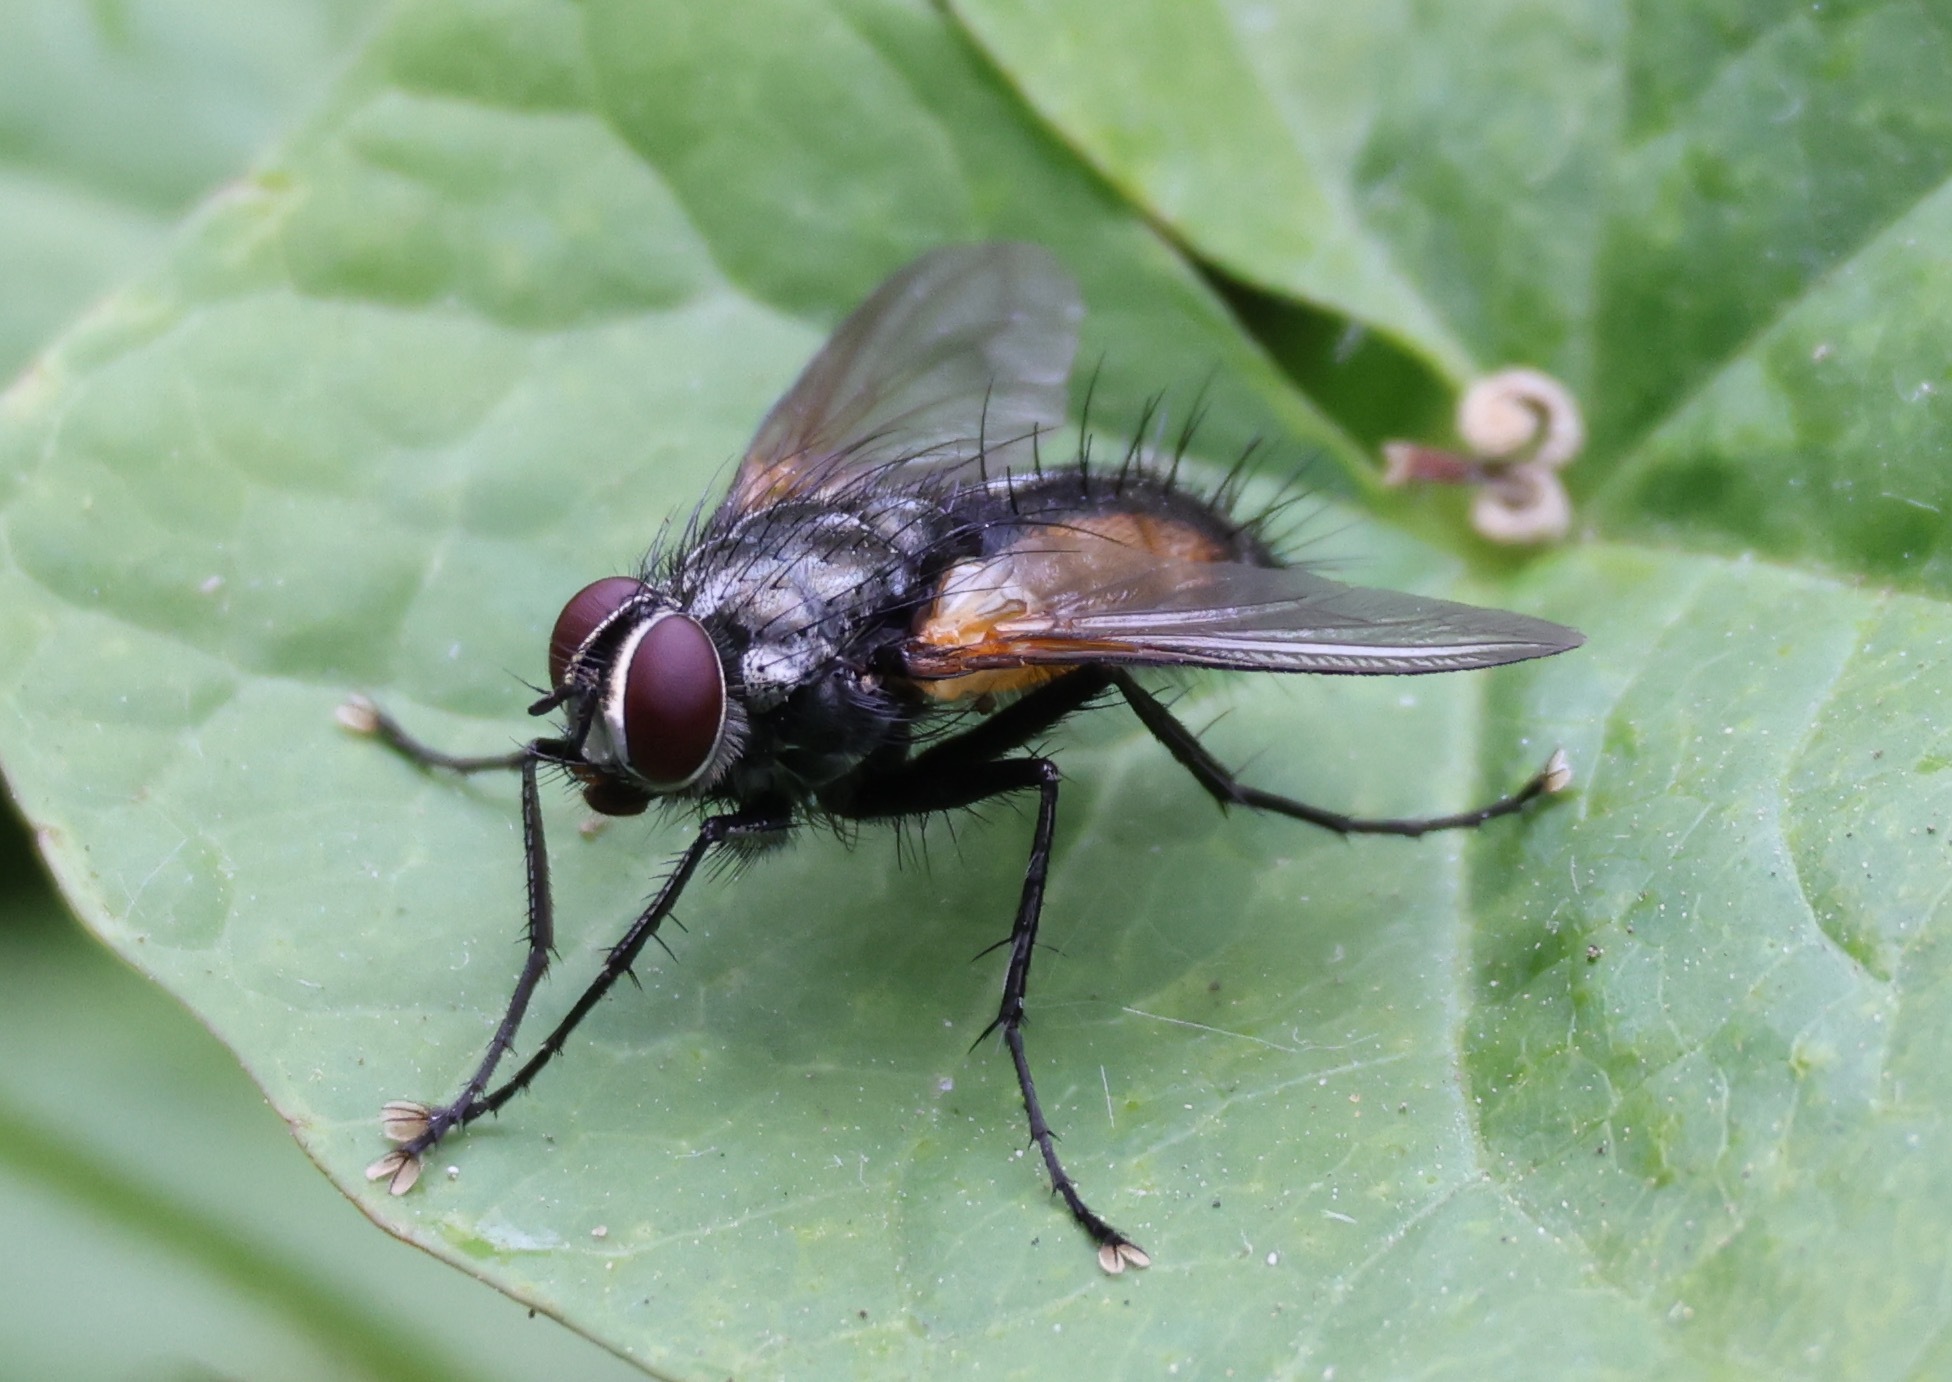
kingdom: Animalia
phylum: Arthropoda
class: Insecta
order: Diptera
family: Tachinidae
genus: Thelaira
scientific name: Thelaira nigripes
